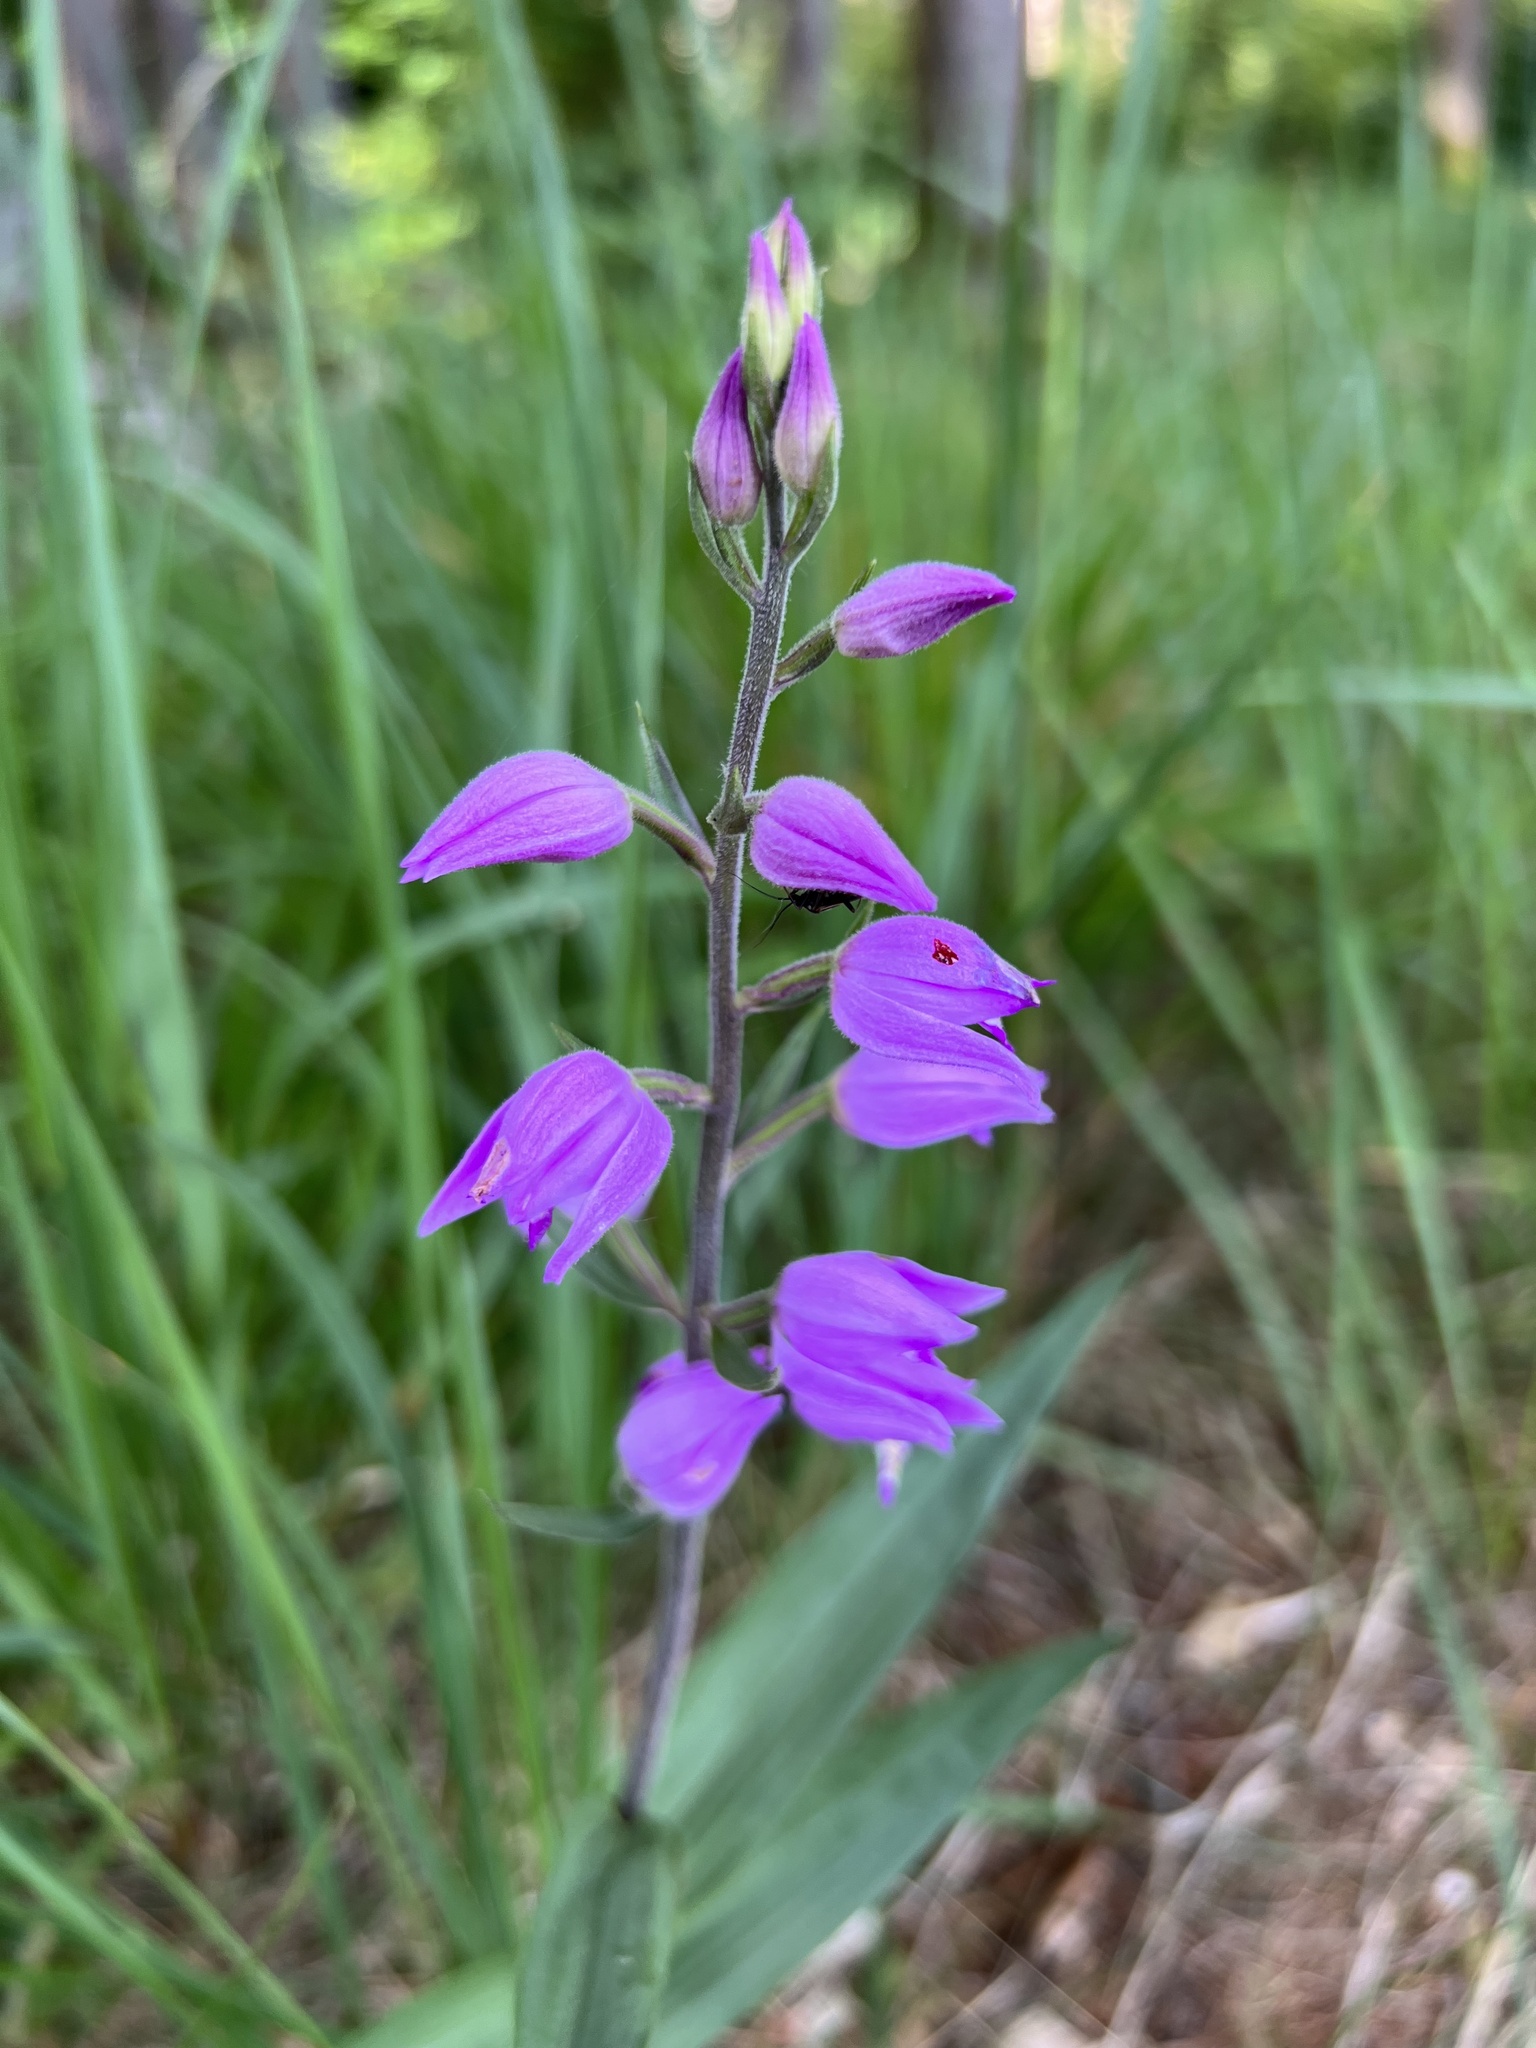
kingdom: Plantae
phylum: Tracheophyta
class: Liliopsida
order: Asparagales
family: Orchidaceae
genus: Cephalanthera
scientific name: Cephalanthera rubra
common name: Red helleborine
